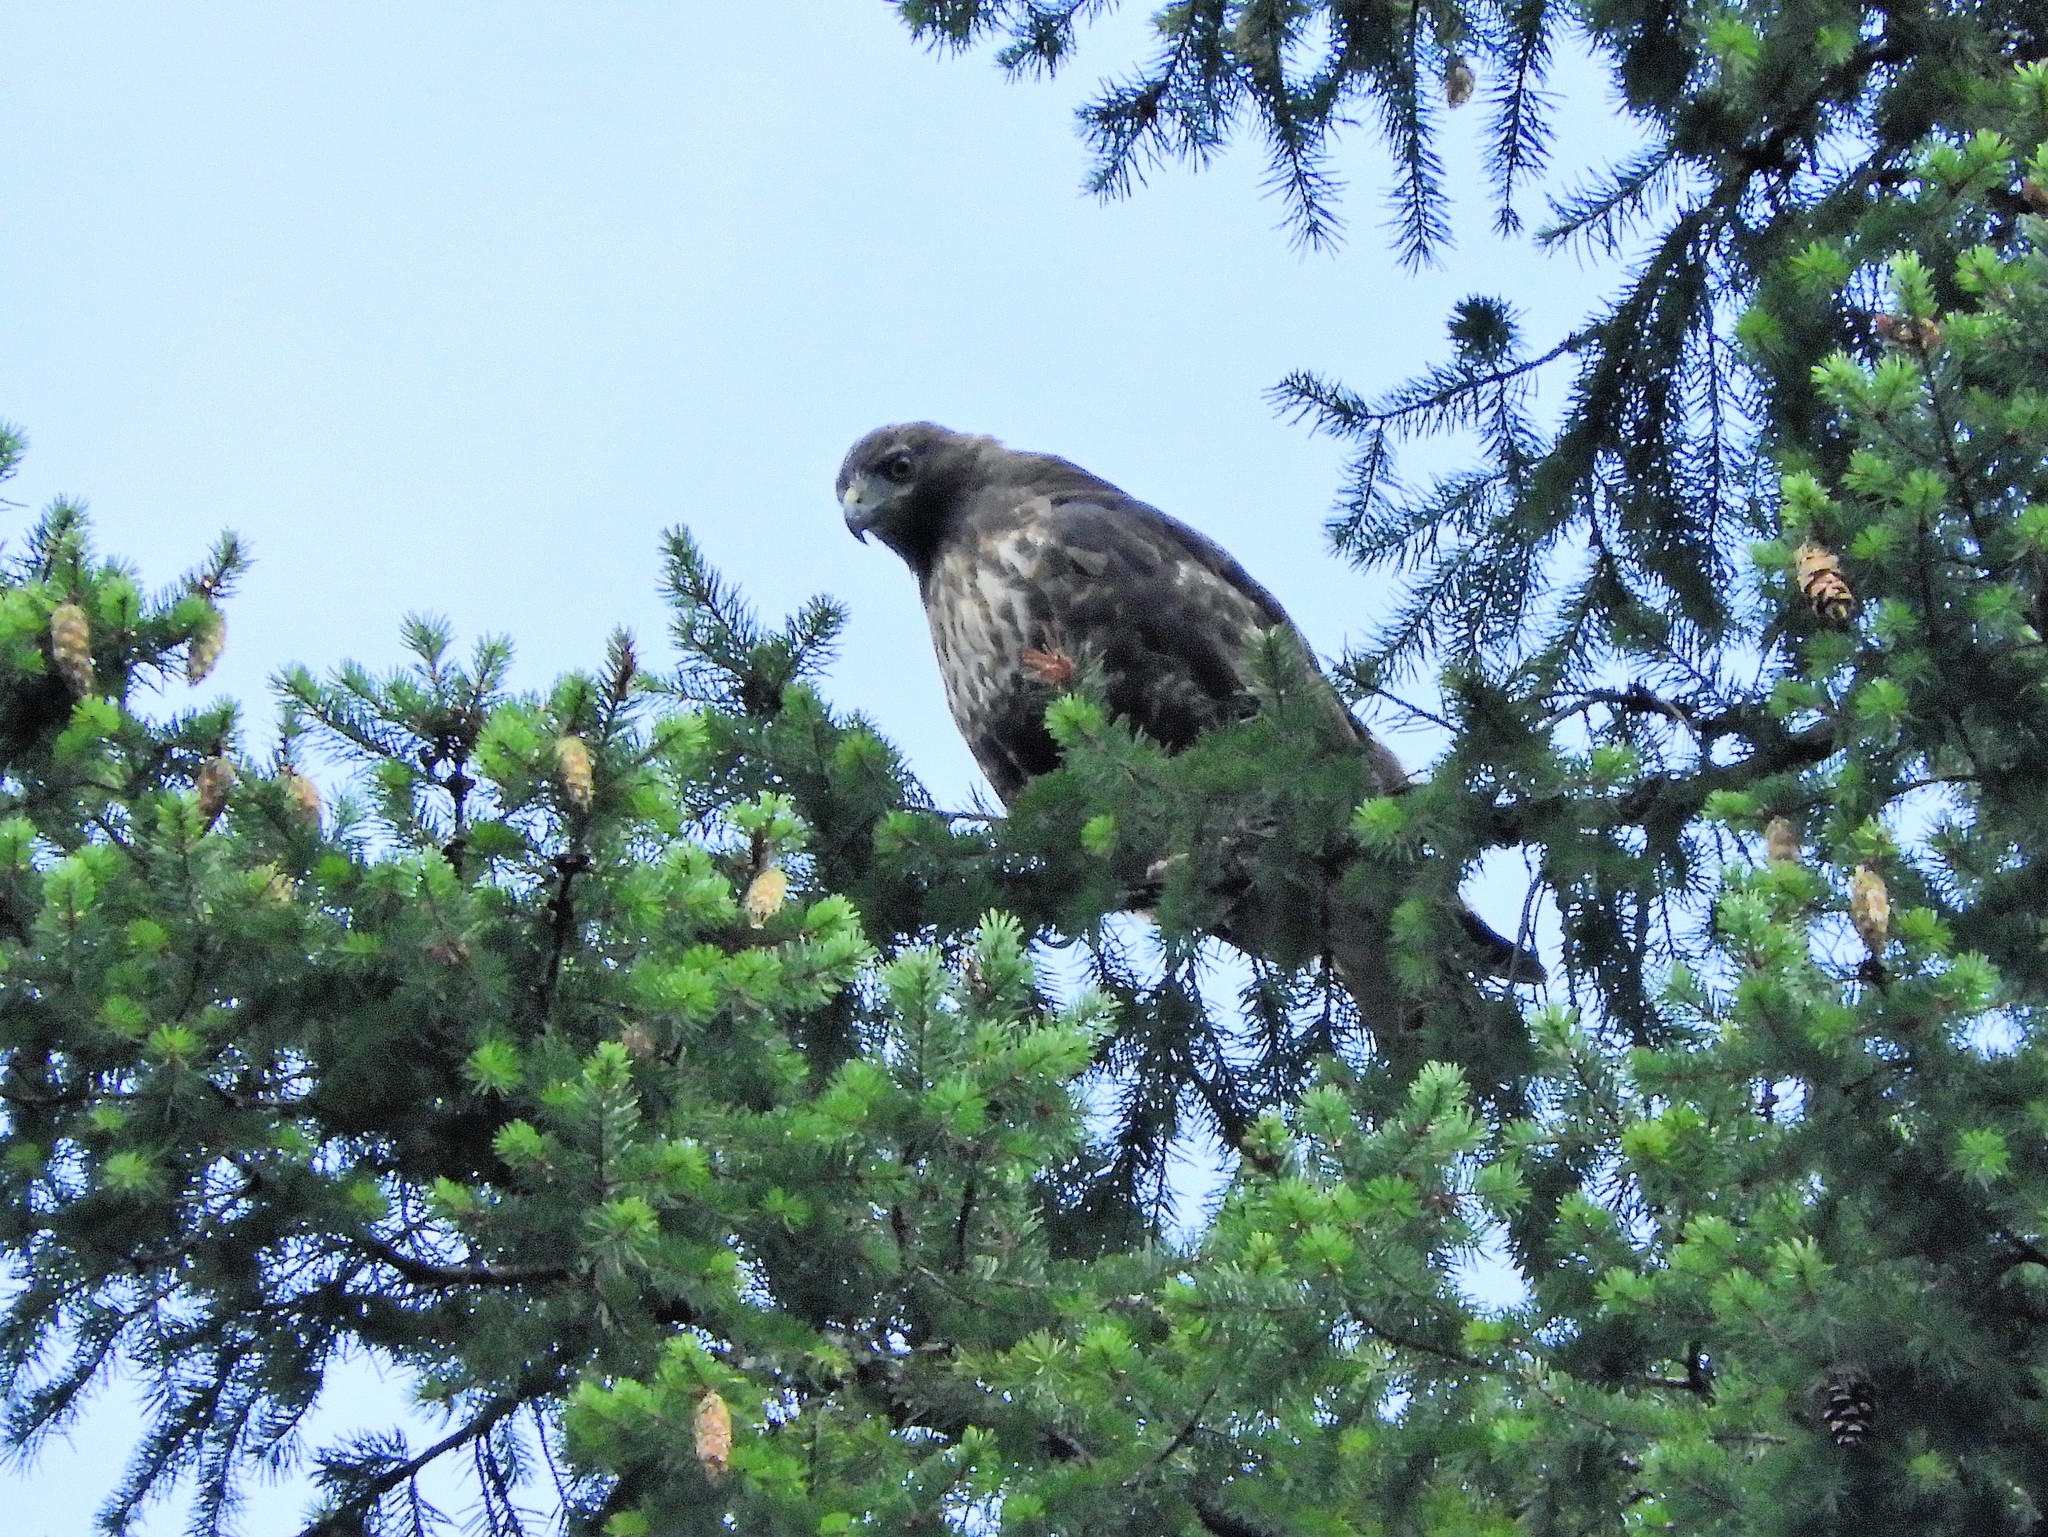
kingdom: Animalia
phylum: Chordata
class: Aves
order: Accipitriformes
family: Accipitridae
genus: Buteo
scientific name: Buteo jamaicensis
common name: Red-tailed hawk
